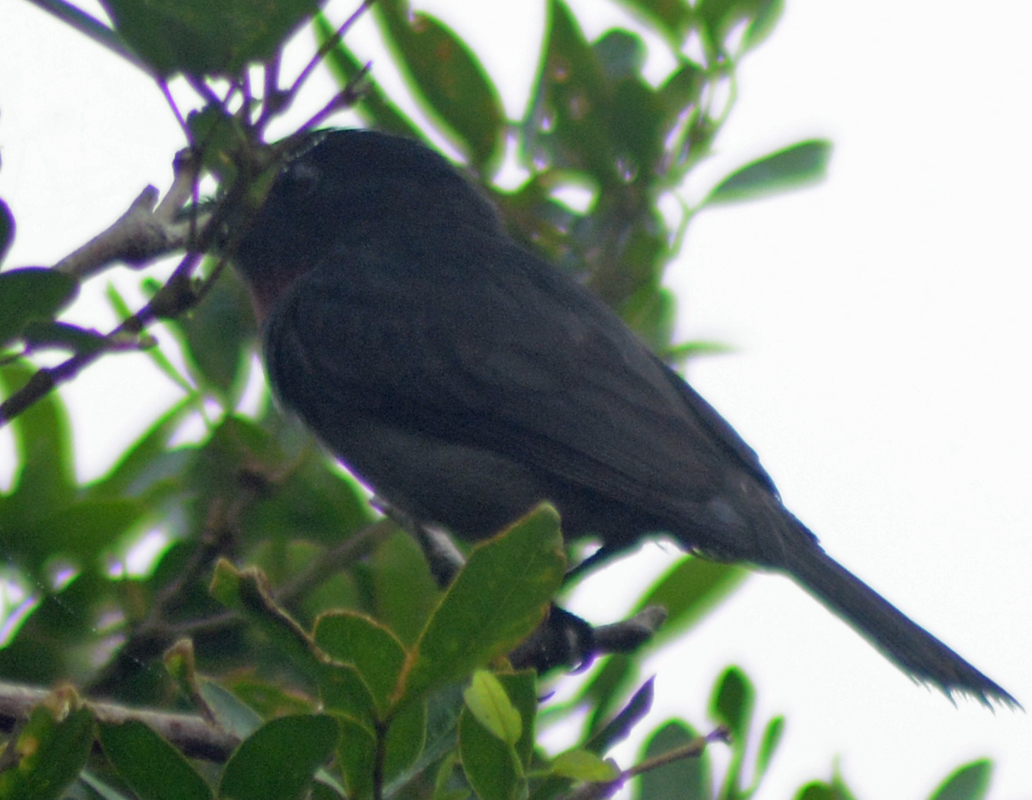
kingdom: Animalia
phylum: Chordata
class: Aves
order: Passeriformes
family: Cotingidae
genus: Pachyramphus
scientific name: Pachyramphus aglaiae
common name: Rose-throated becard
